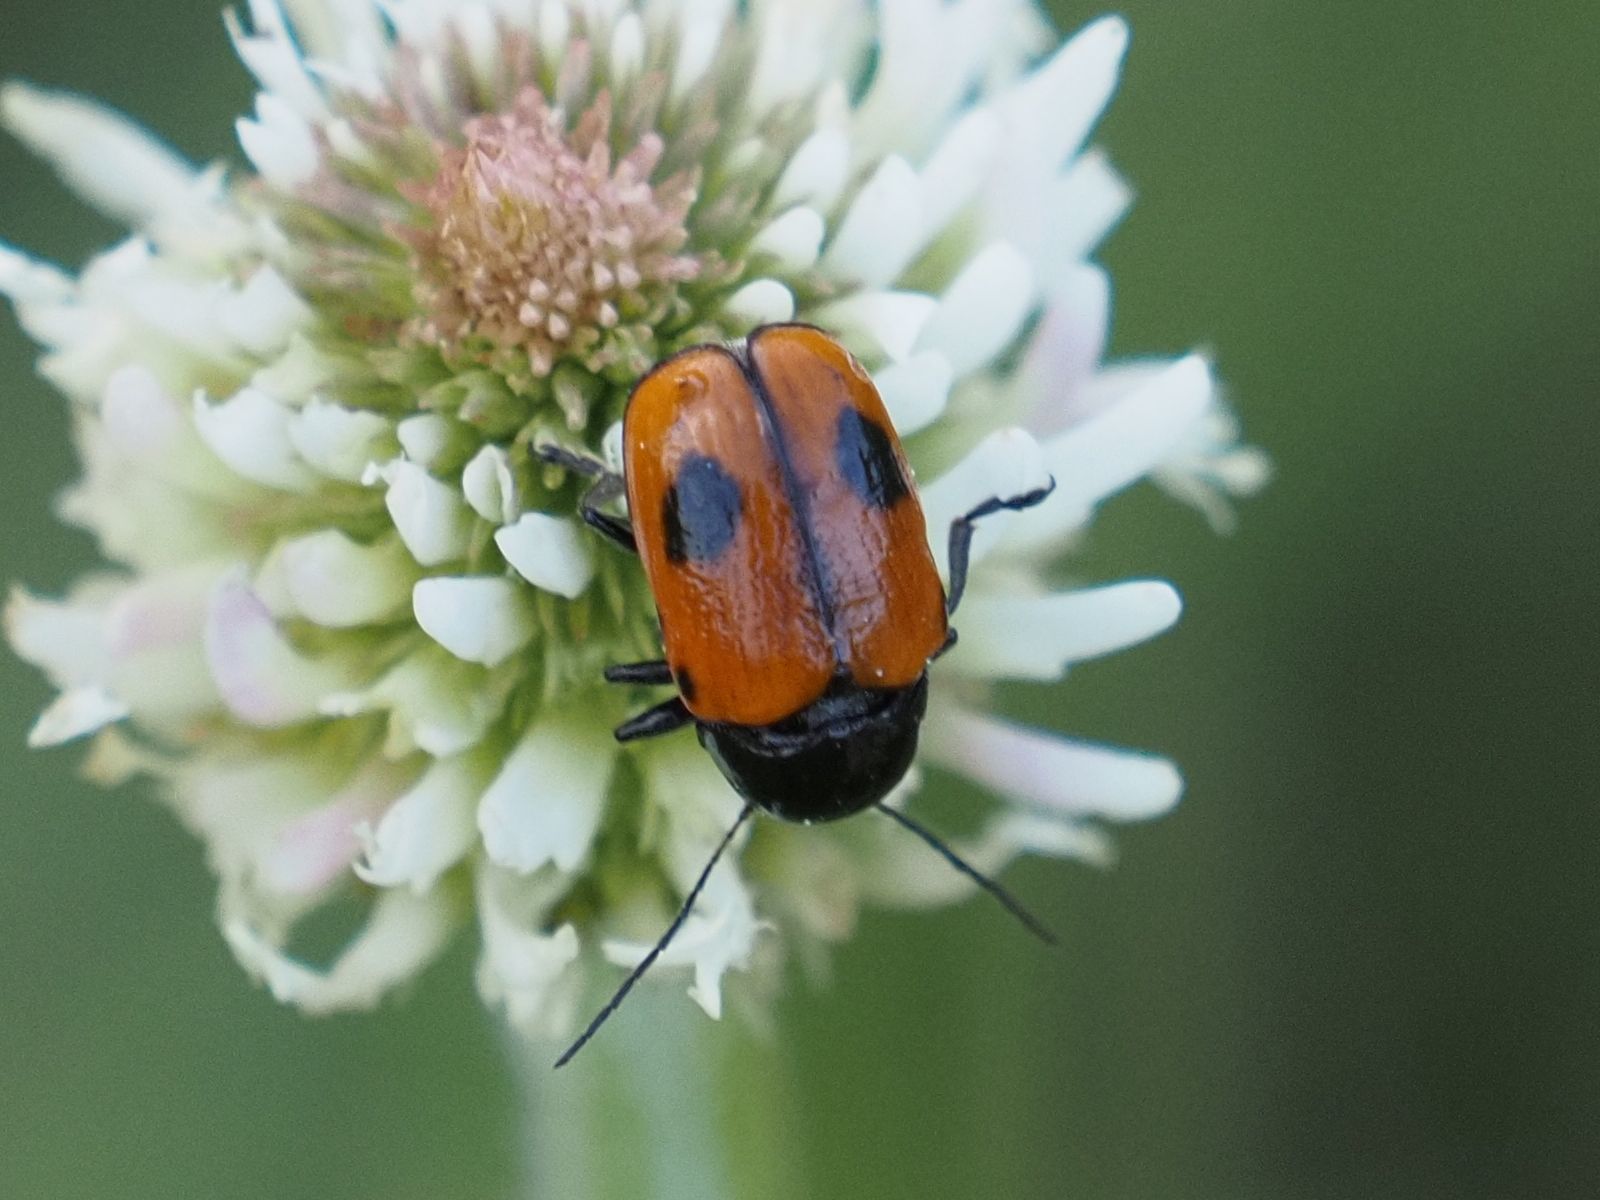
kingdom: Animalia
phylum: Arthropoda
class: Insecta
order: Coleoptera
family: Chrysomelidae
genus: Chiridopsis
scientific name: Chiridopsis bipunctata
